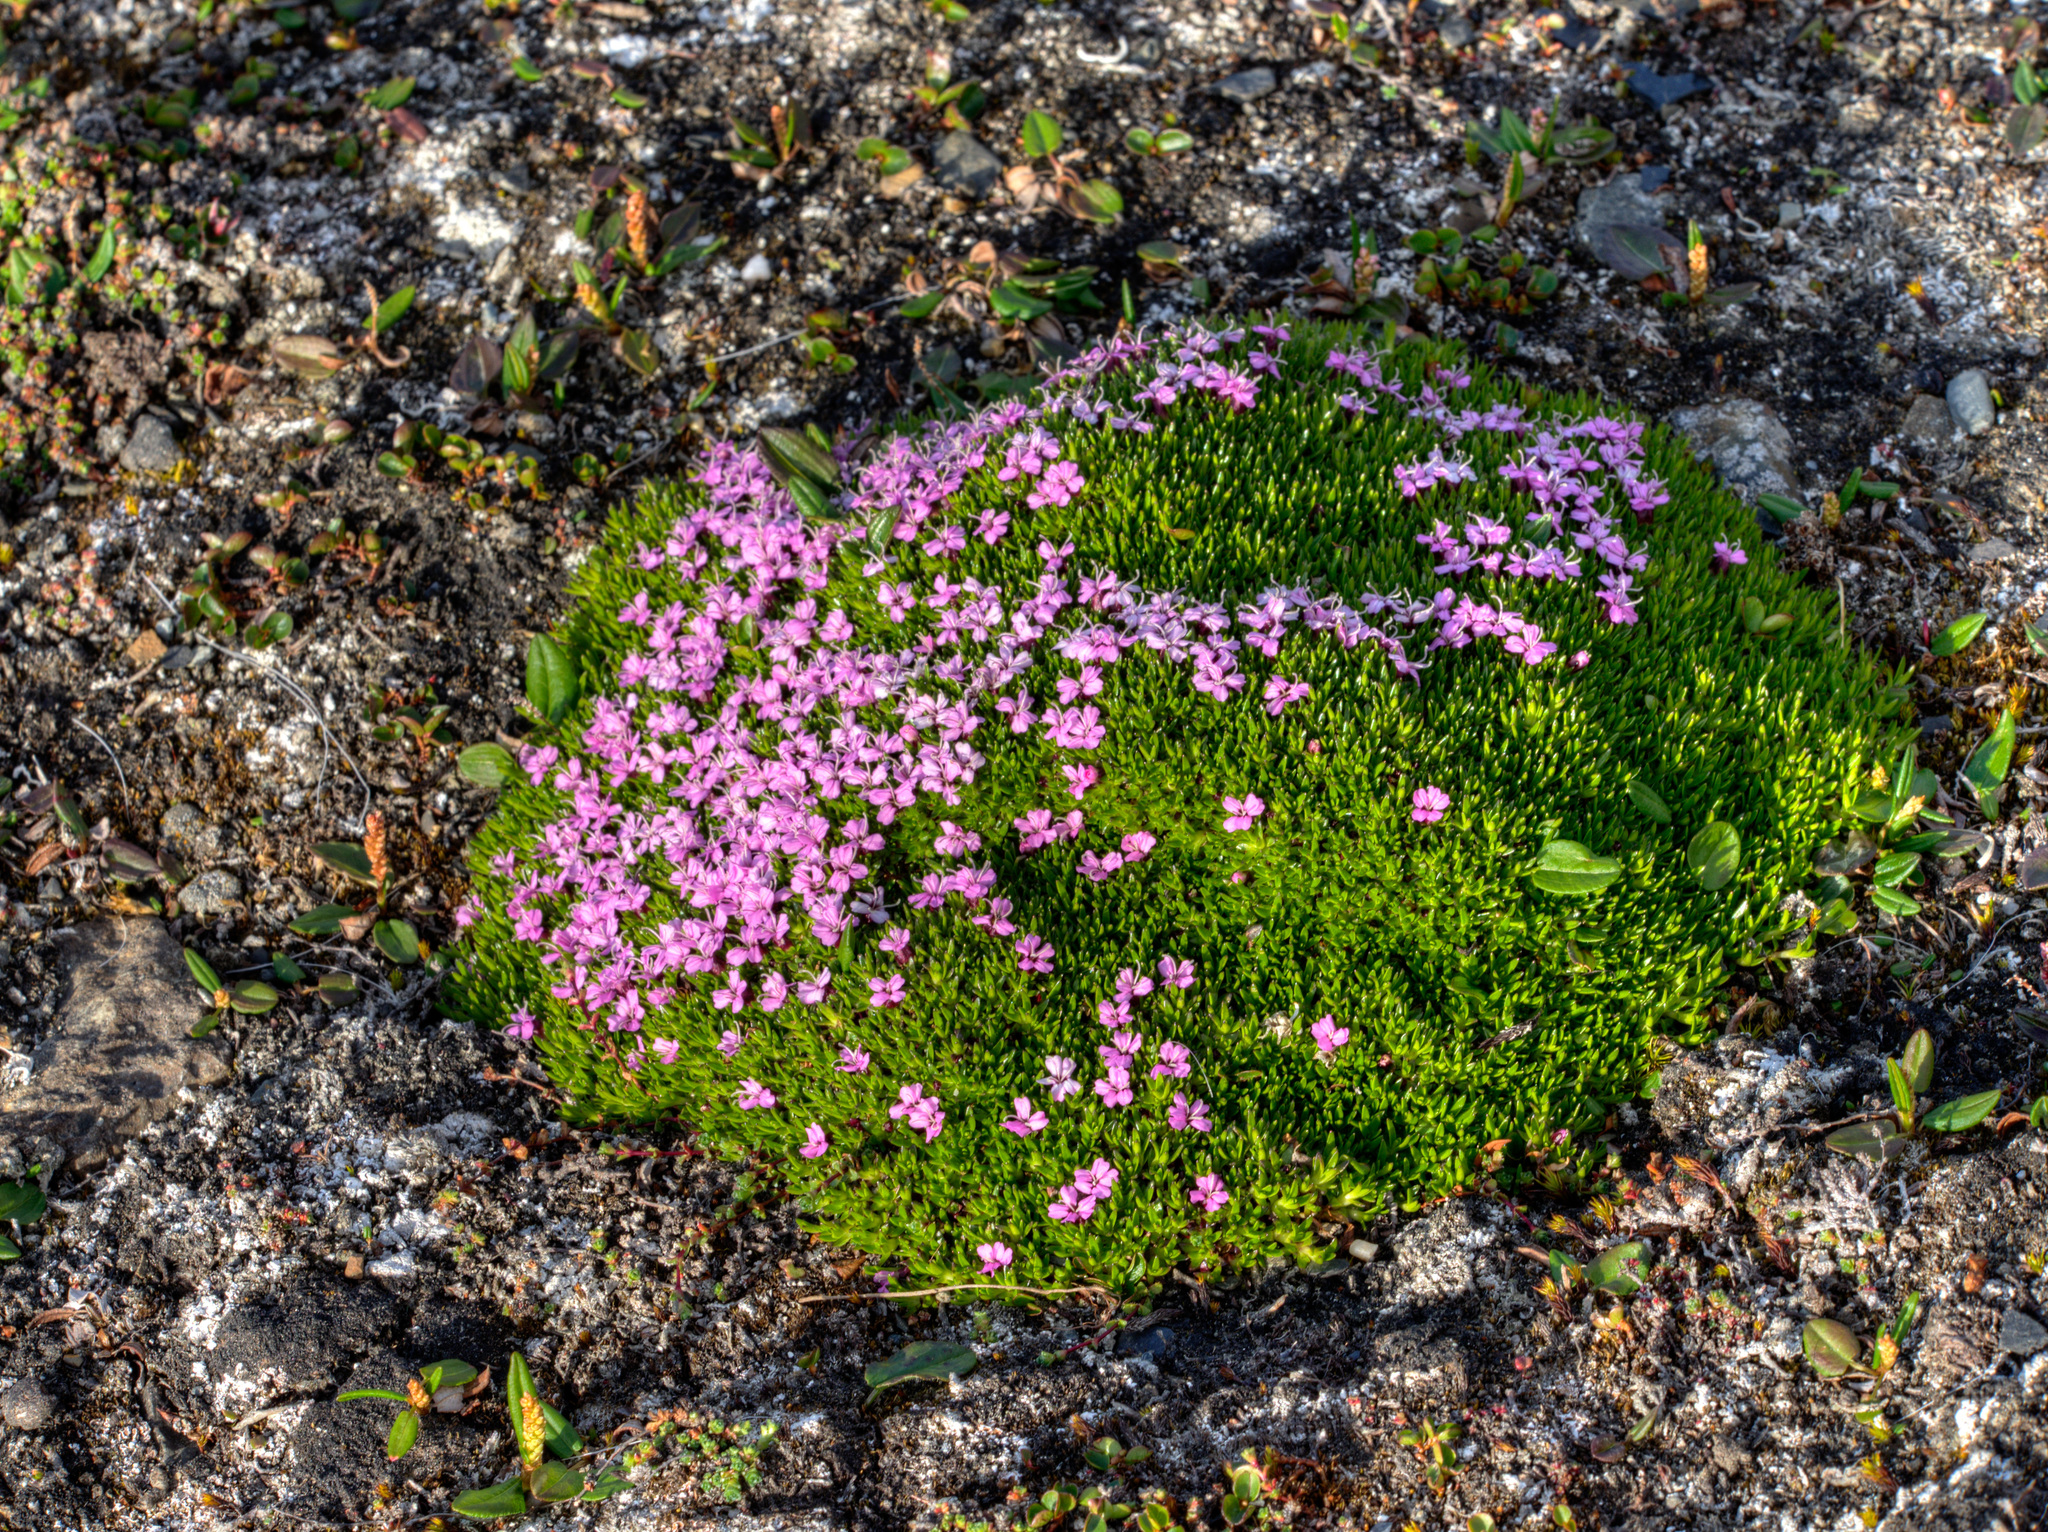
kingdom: Plantae
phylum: Tracheophyta
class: Magnoliopsida
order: Caryophyllales
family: Caryophyllaceae
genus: Silene
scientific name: Silene acaulis
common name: Moss campion
